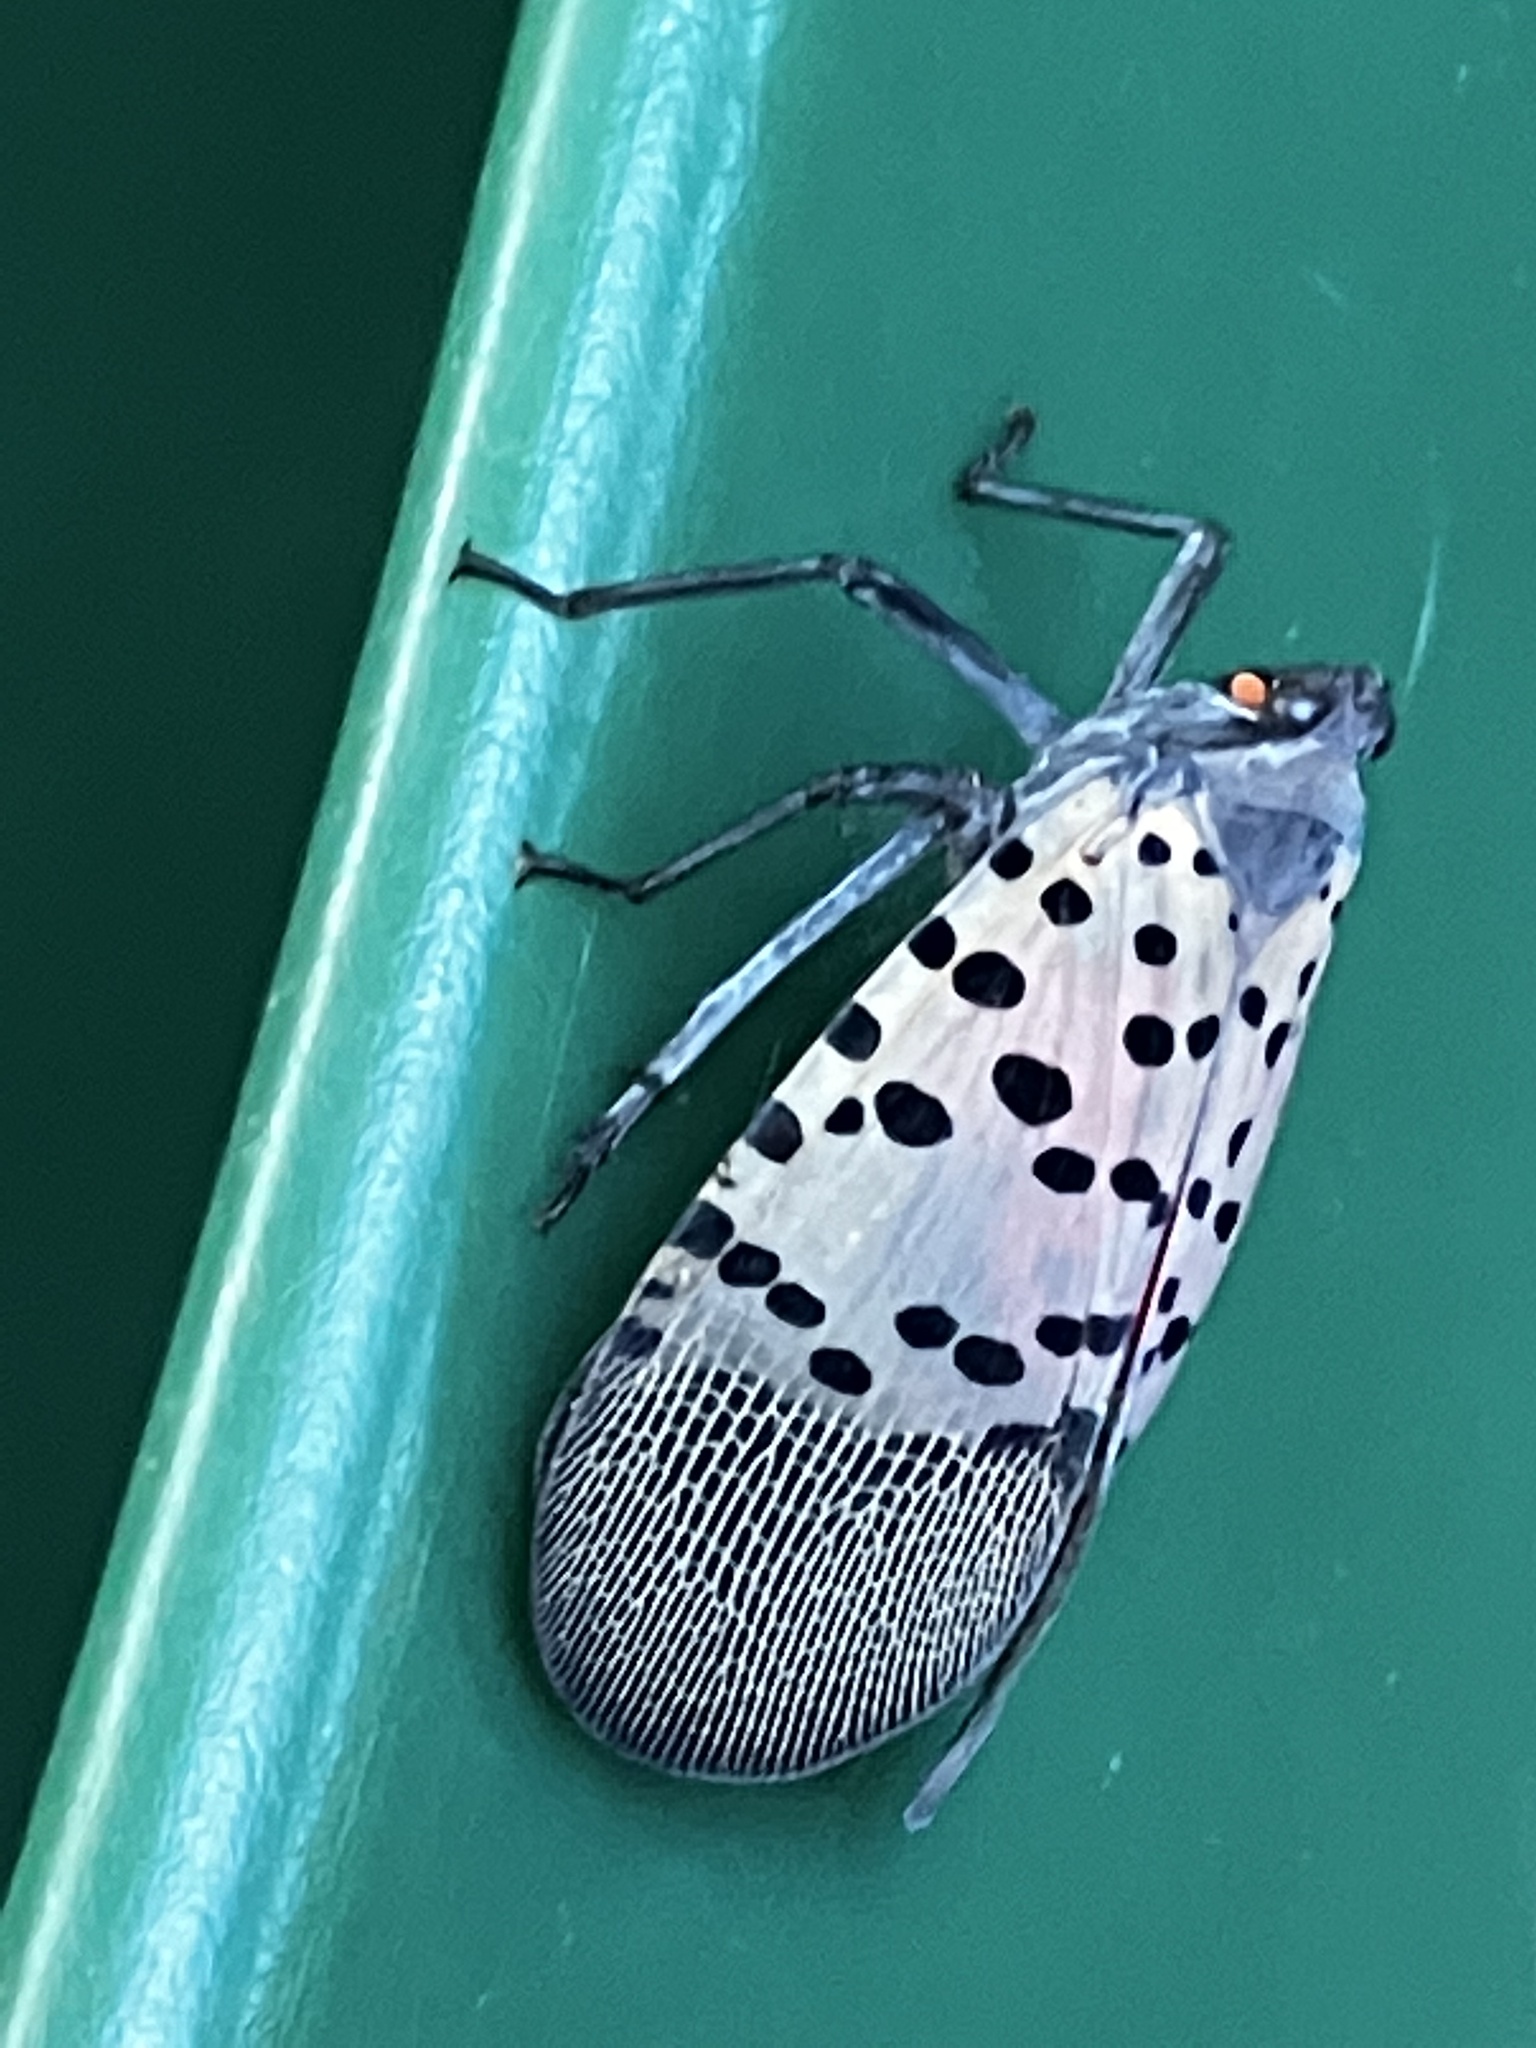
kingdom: Animalia
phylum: Arthropoda
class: Insecta
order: Hemiptera
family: Fulgoridae
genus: Lycorma
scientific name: Lycorma delicatula
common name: Spotted lanternfly
